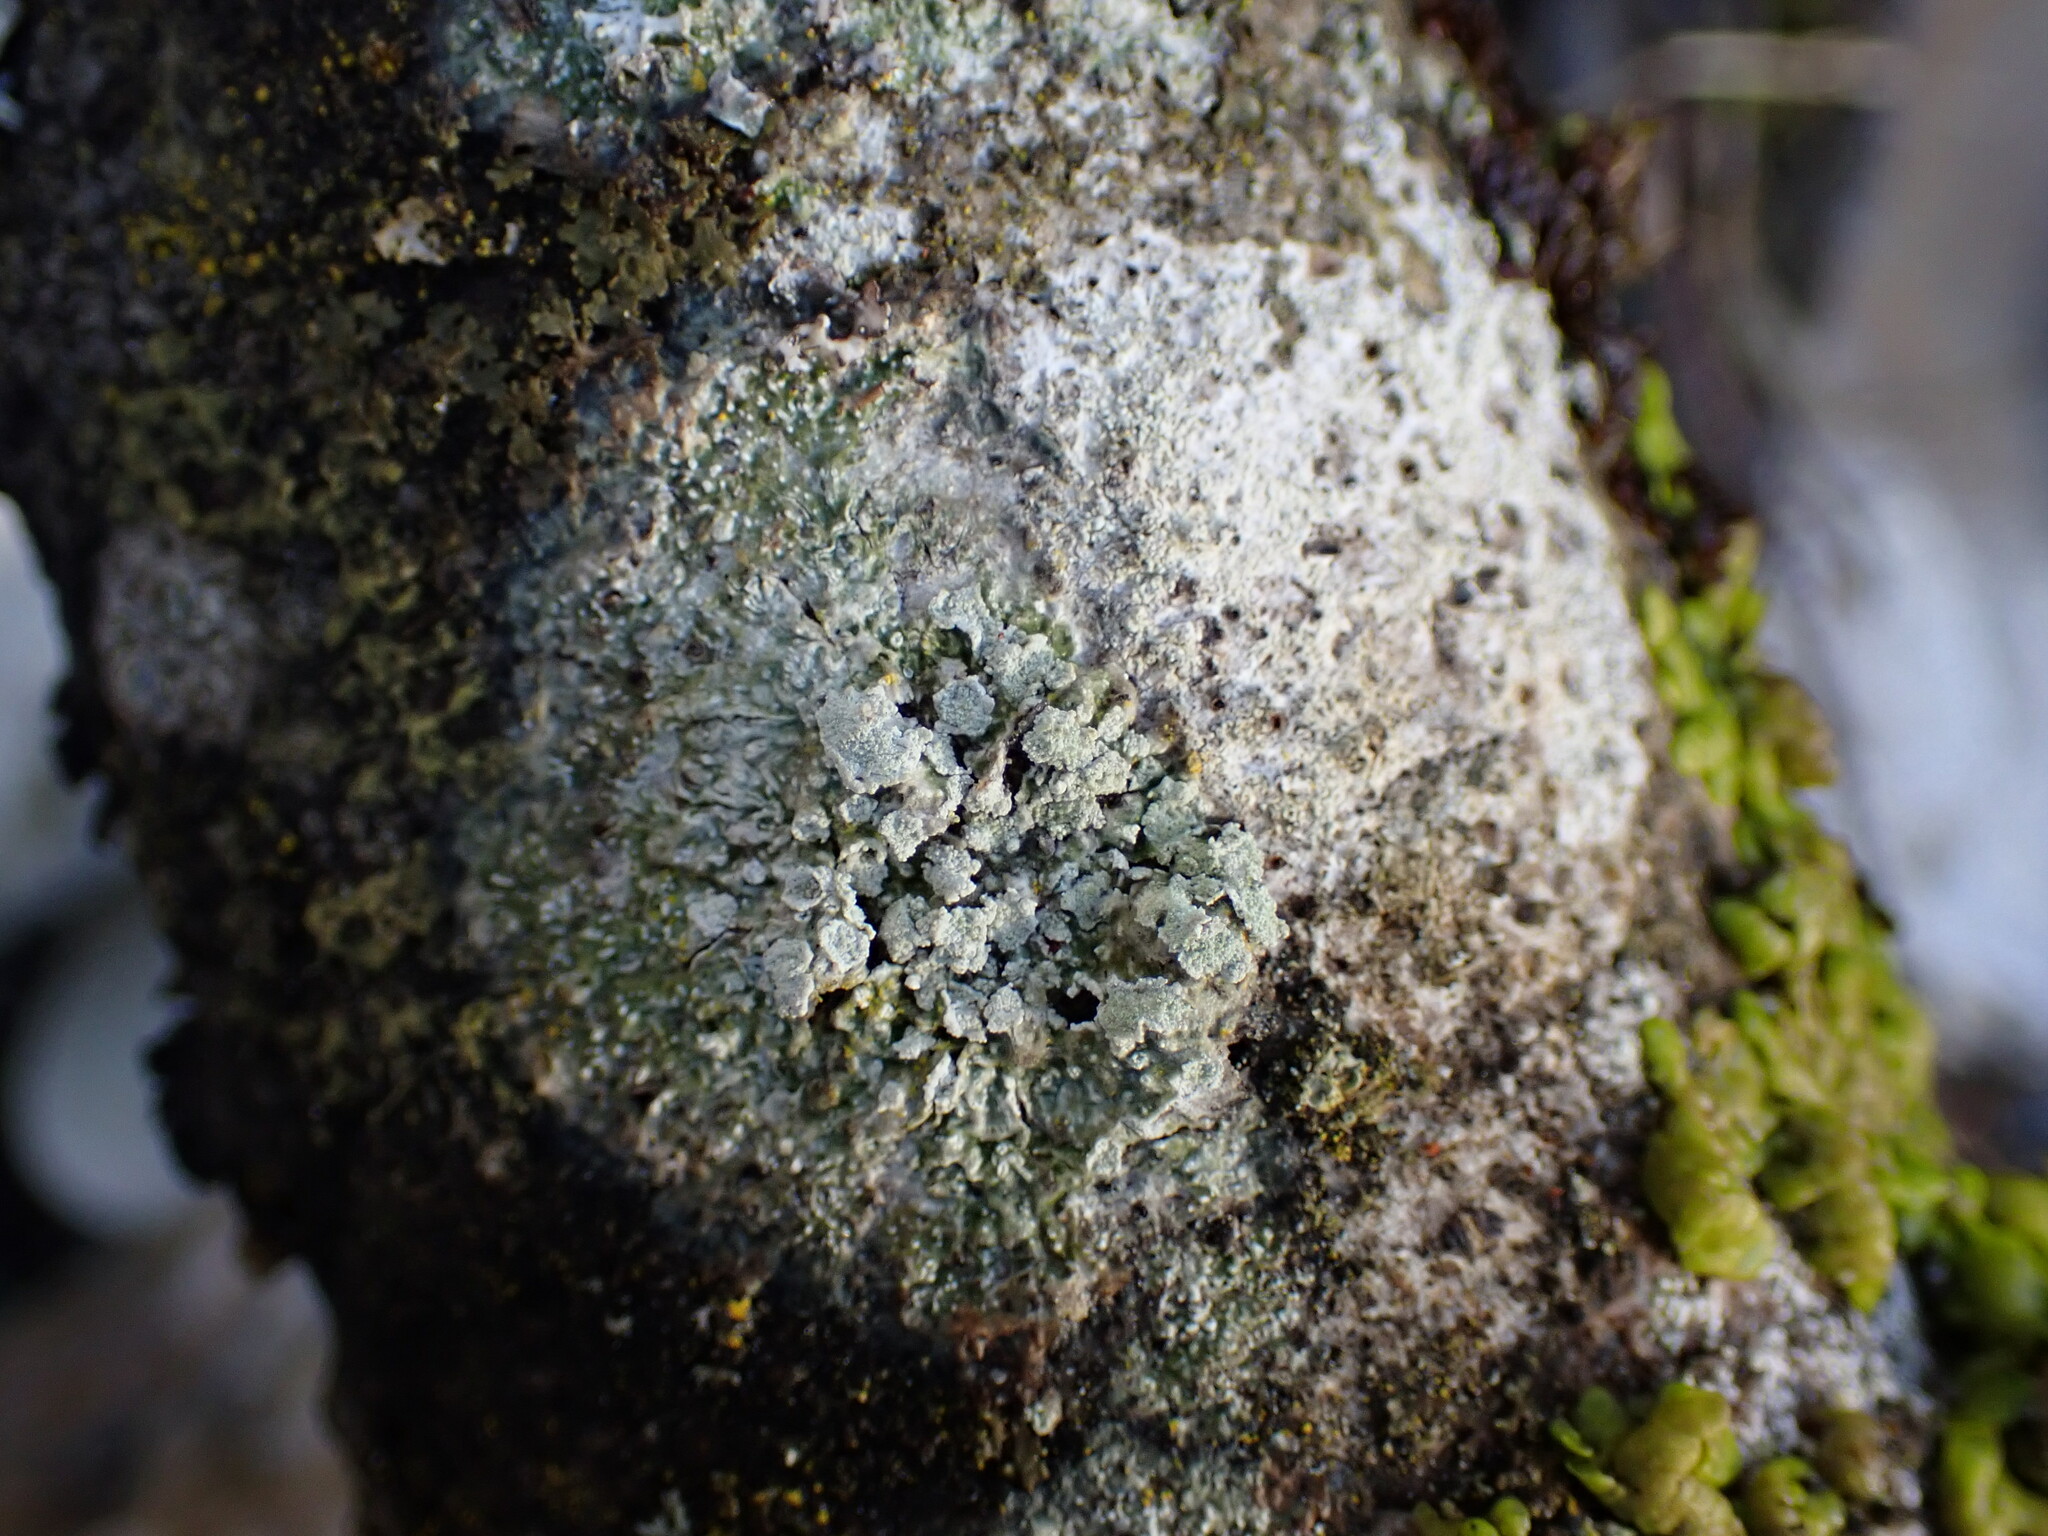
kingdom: Fungi
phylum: Ascomycota
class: Lecanoromycetes
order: Pertusariales
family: Pertusariaceae
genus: Lepra
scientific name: Lepra albescens
